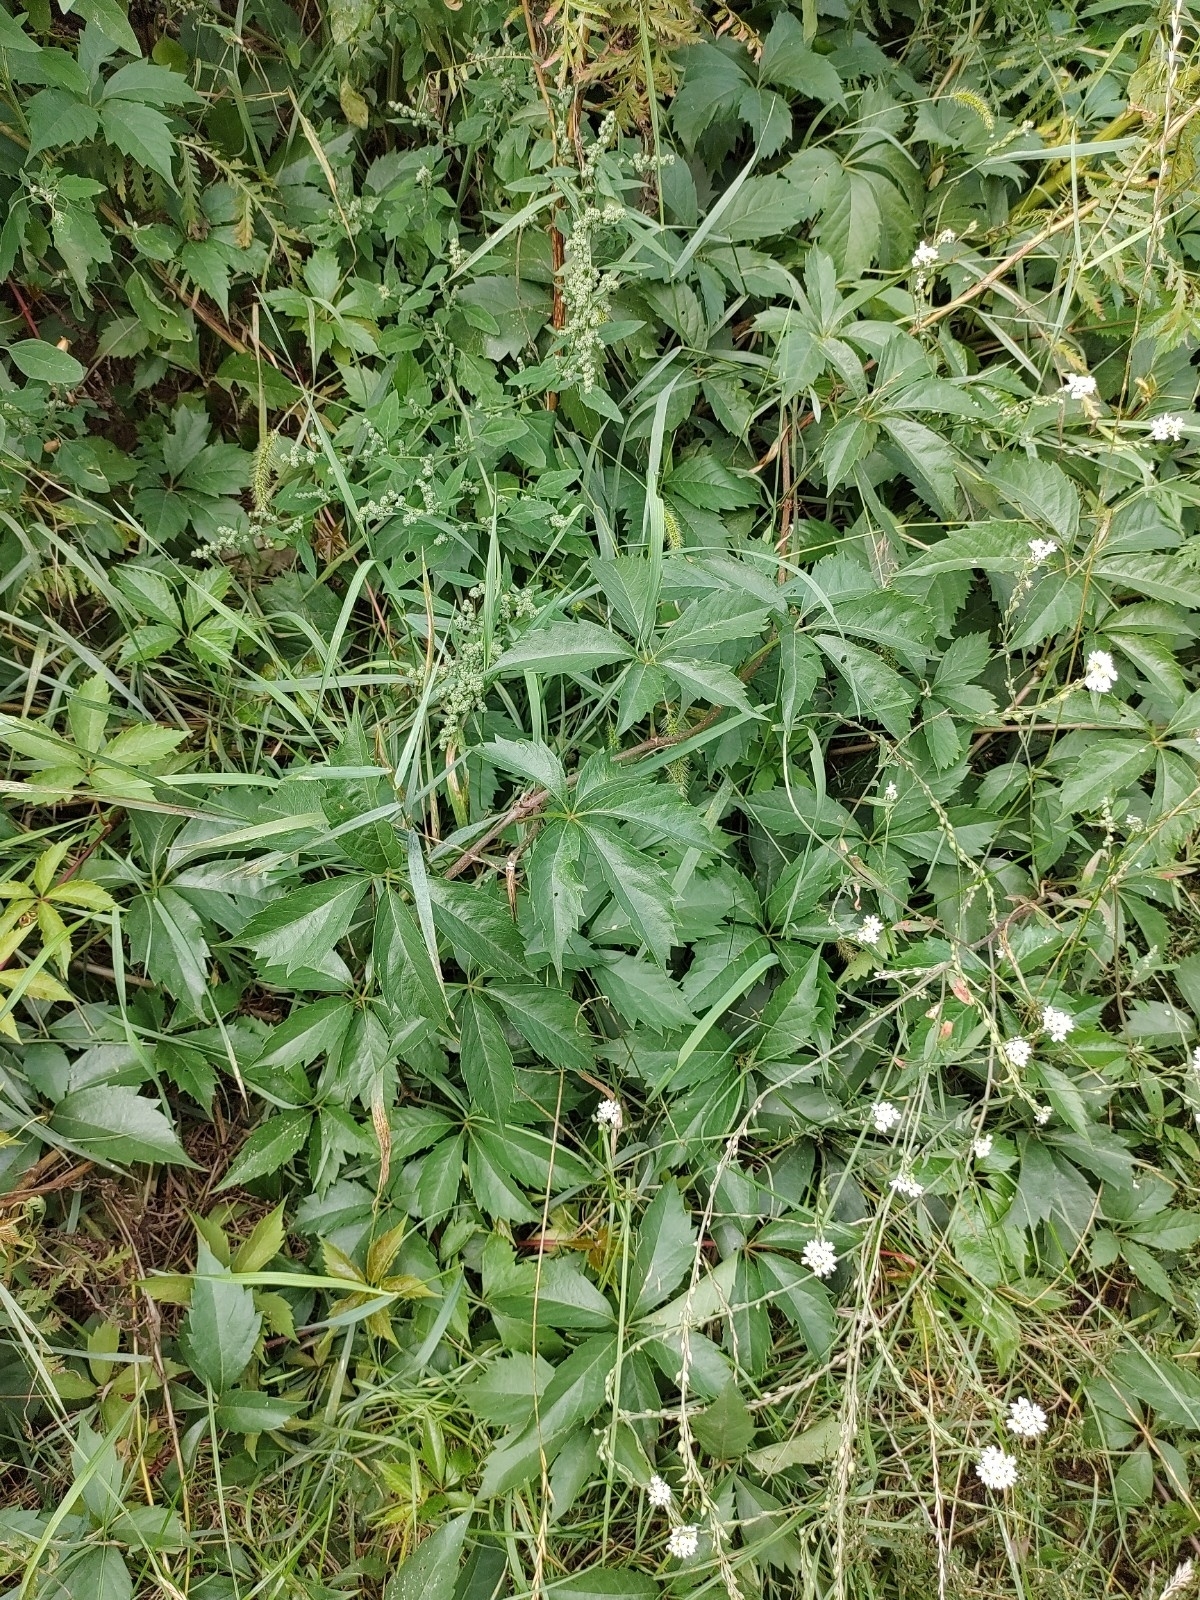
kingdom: Plantae
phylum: Tracheophyta
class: Magnoliopsida
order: Vitales
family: Vitaceae
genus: Parthenocissus
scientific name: Parthenocissus quinquefolia
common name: Virginia-creeper
